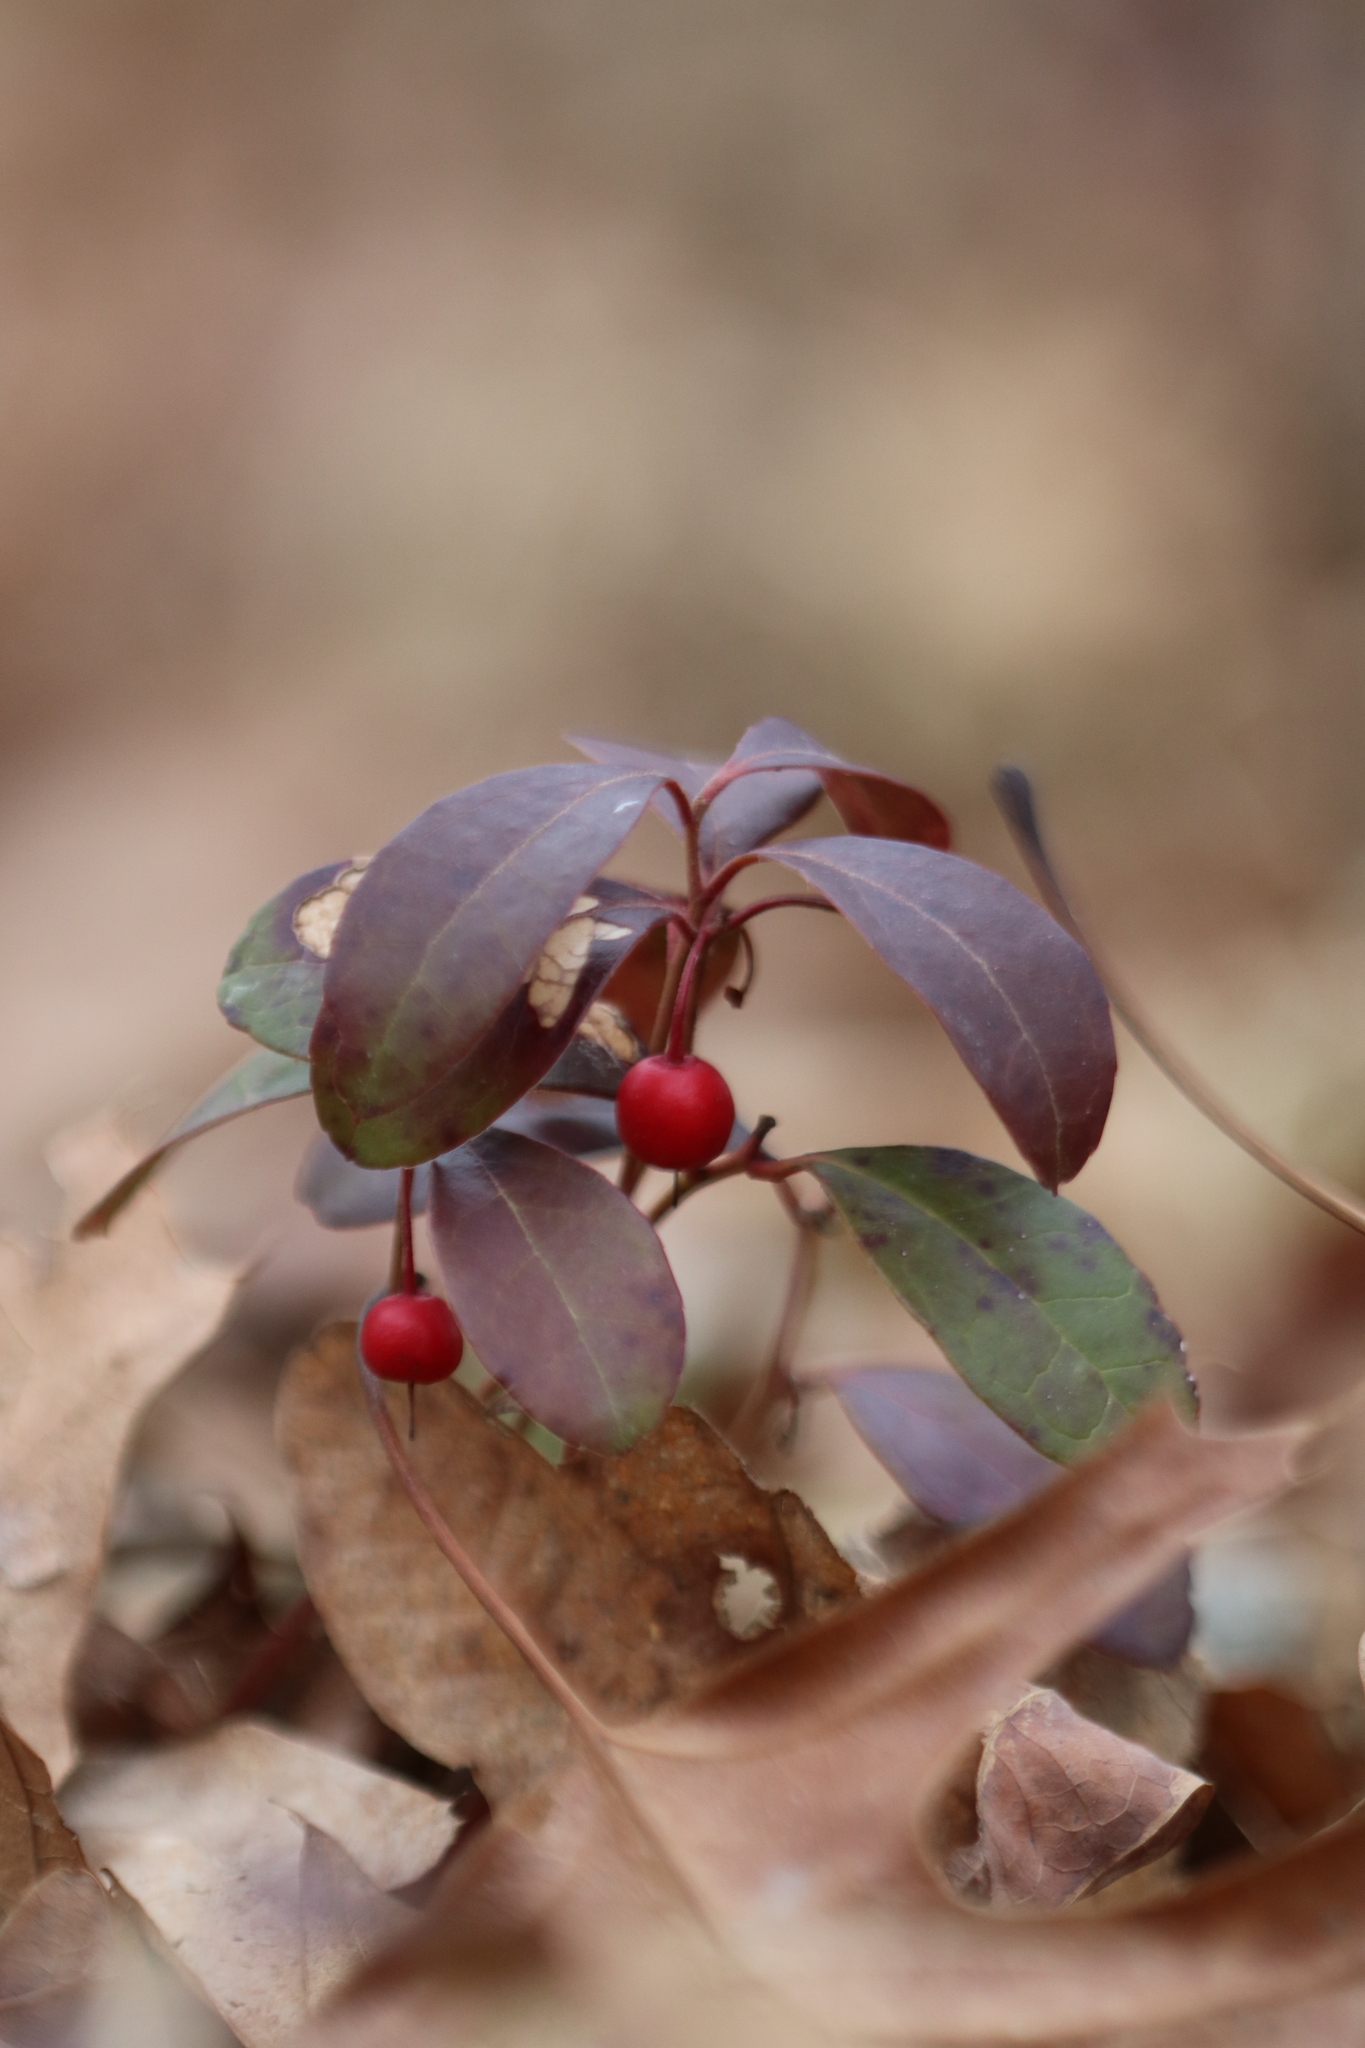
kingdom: Plantae
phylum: Tracheophyta
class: Magnoliopsida
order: Ericales
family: Ericaceae
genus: Gaultheria
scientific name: Gaultheria procumbens
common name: Checkerberry
